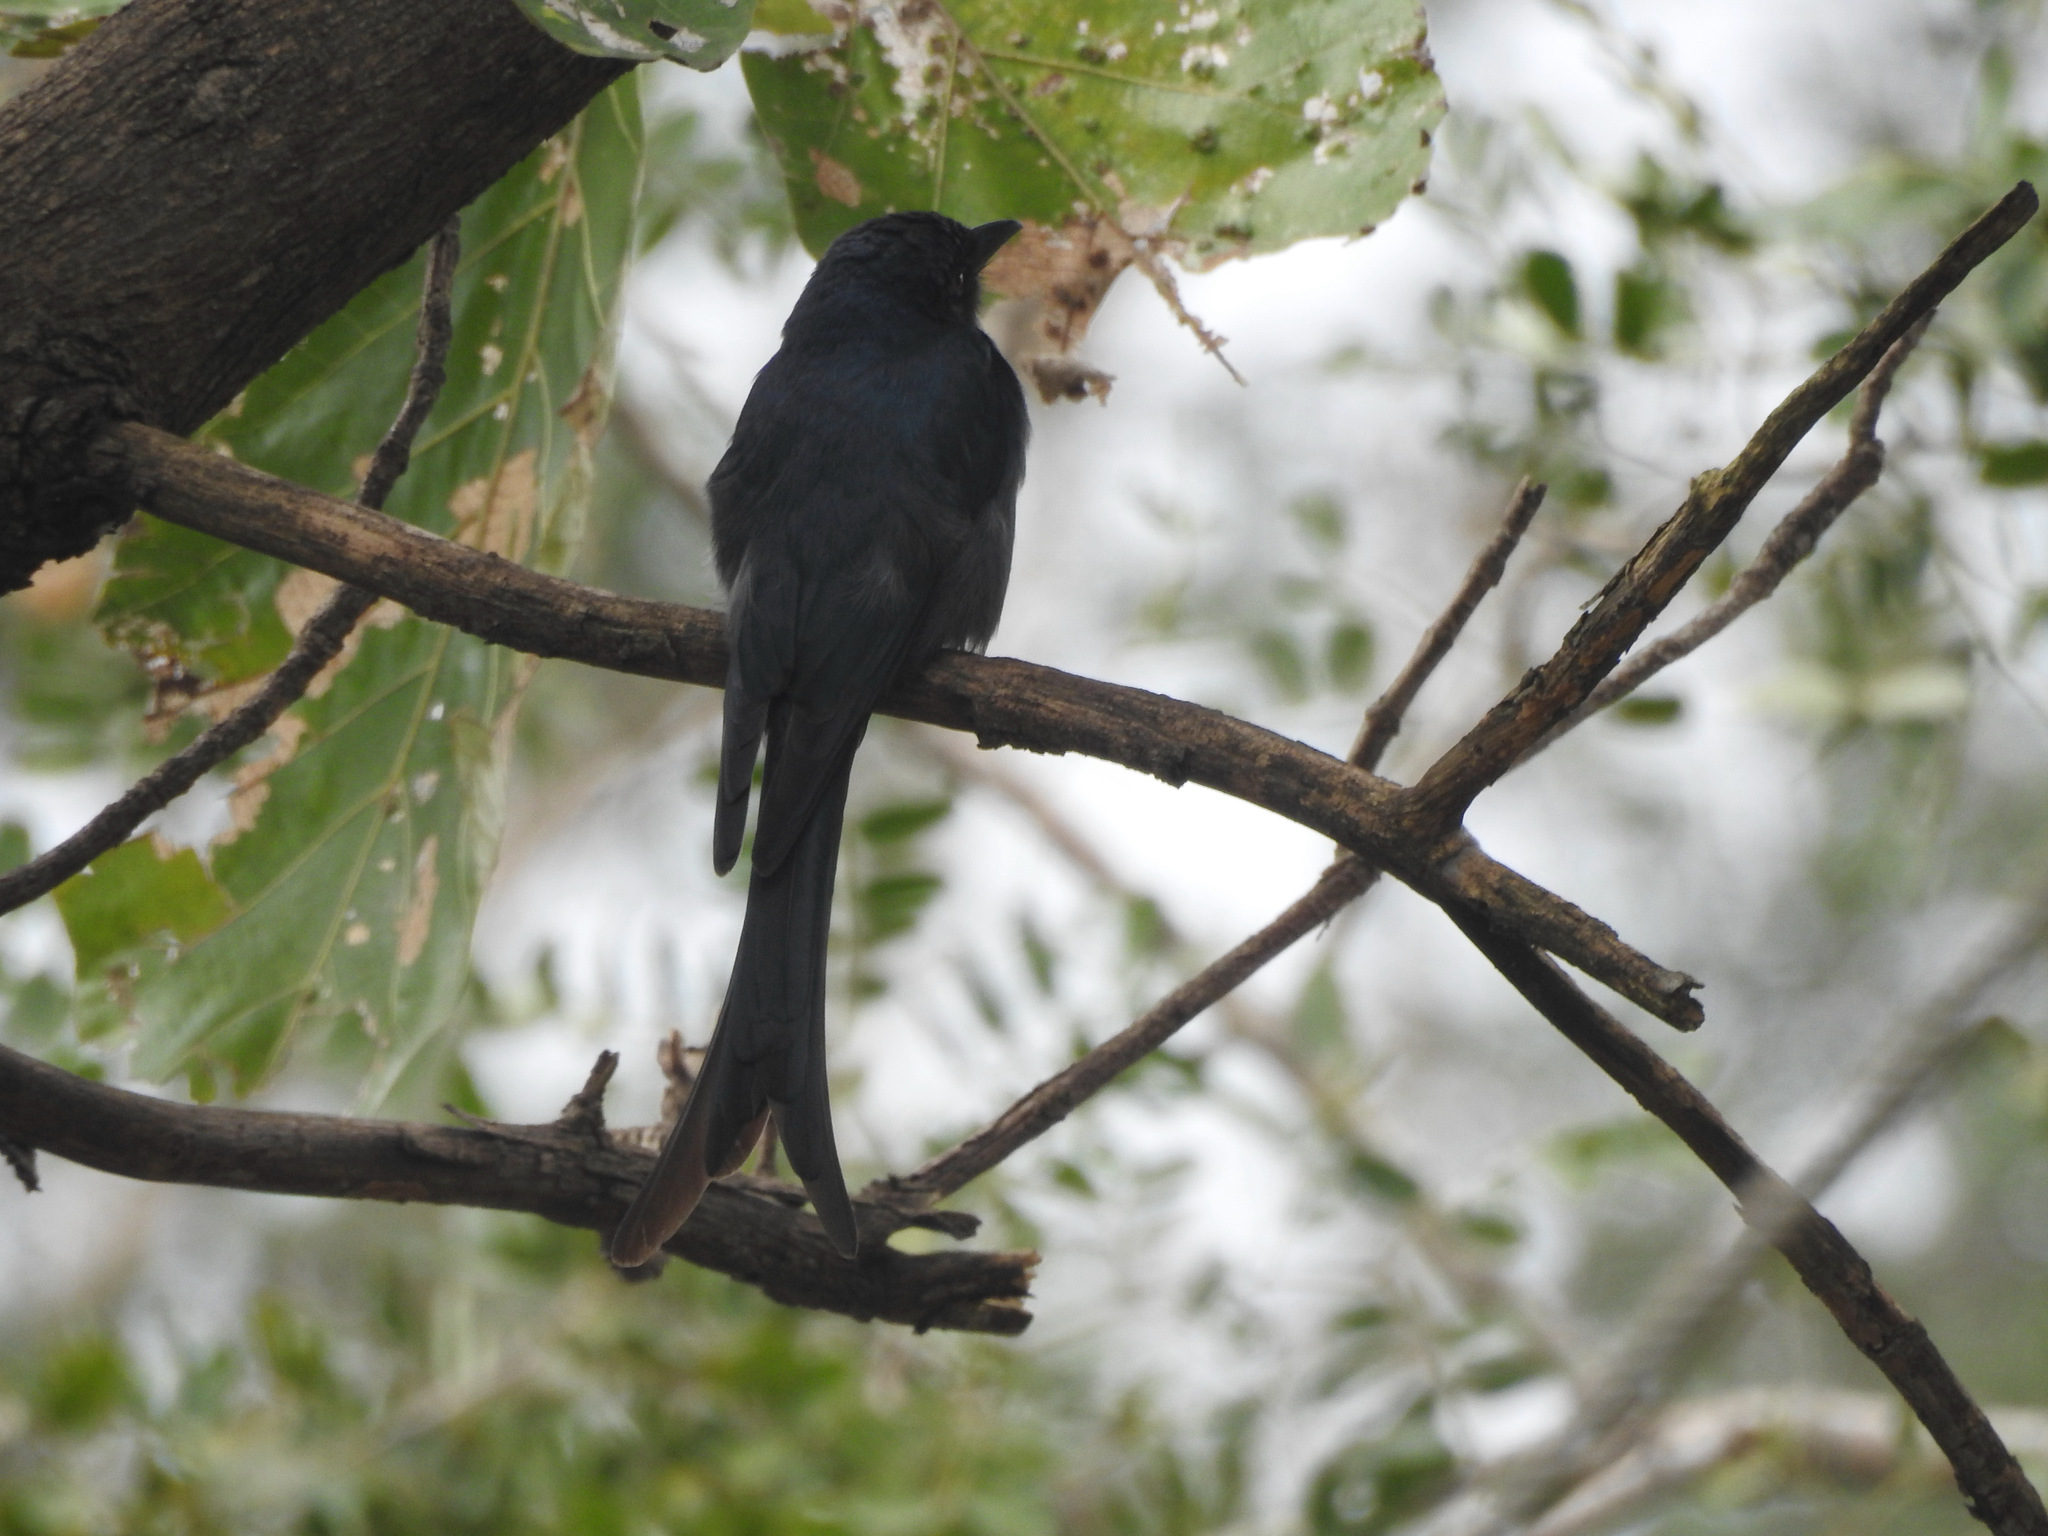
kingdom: Animalia
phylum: Chordata
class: Aves
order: Passeriformes
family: Dicruridae
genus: Dicrurus
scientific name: Dicrurus leucophaeus
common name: Ashy drongo
